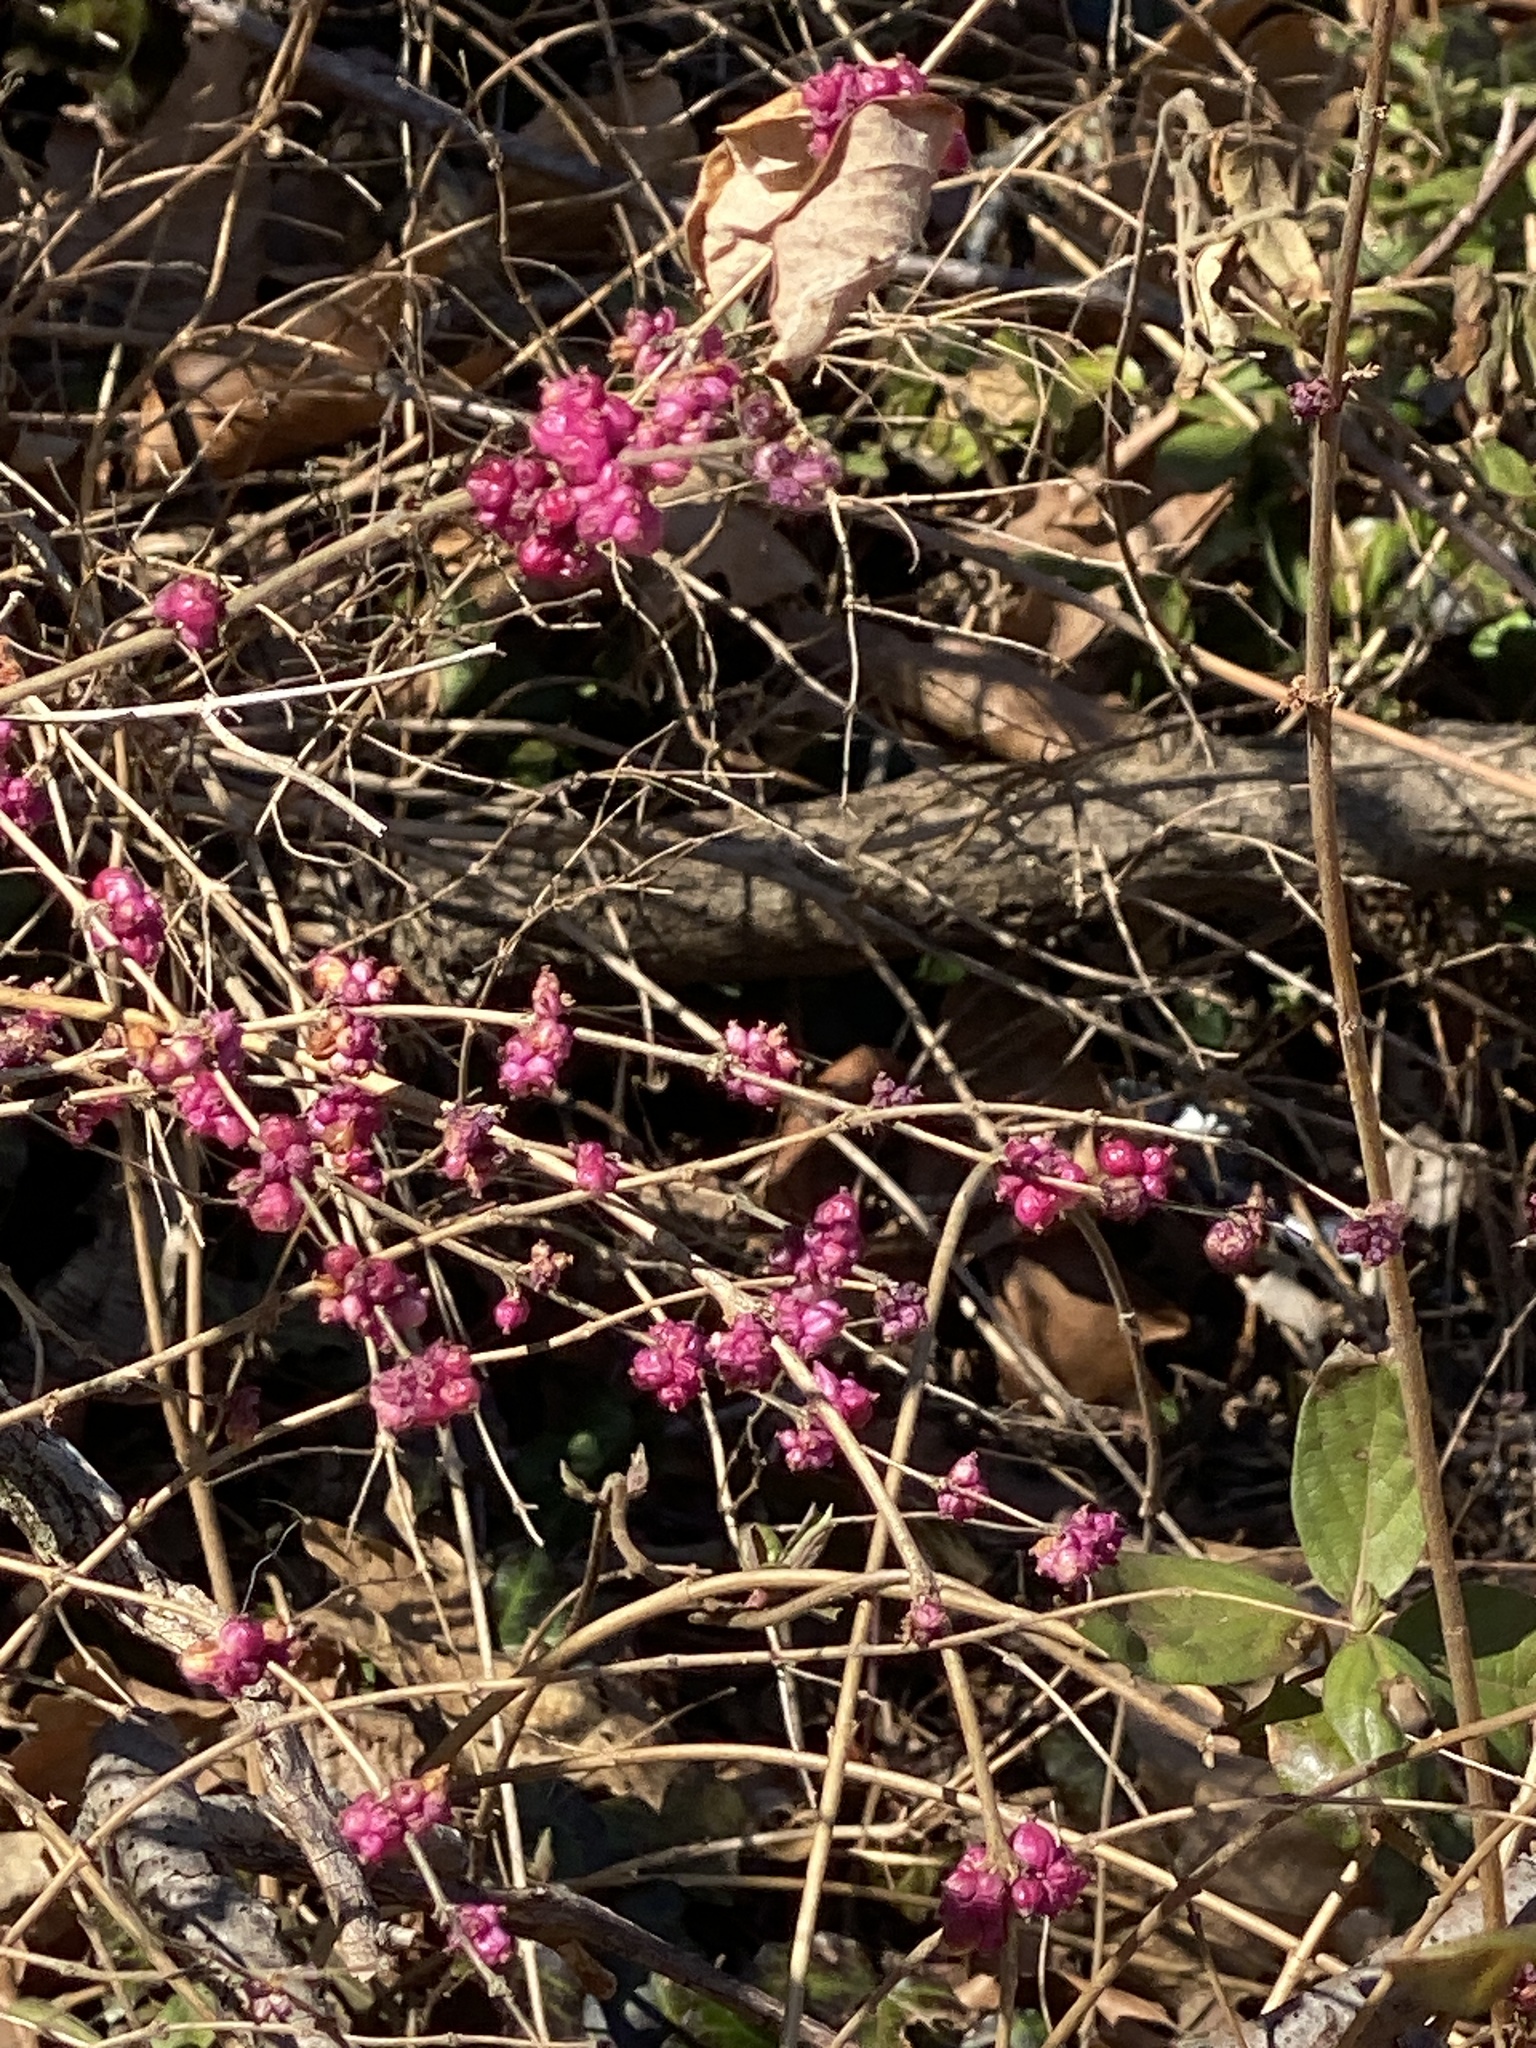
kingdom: Plantae
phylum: Tracheophyta
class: Magnoliopsida
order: Dipsacales
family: Caprifoliaceae
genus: Symphoricarpos
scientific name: Symphoricarpos orbiculatus
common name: Coralberry
